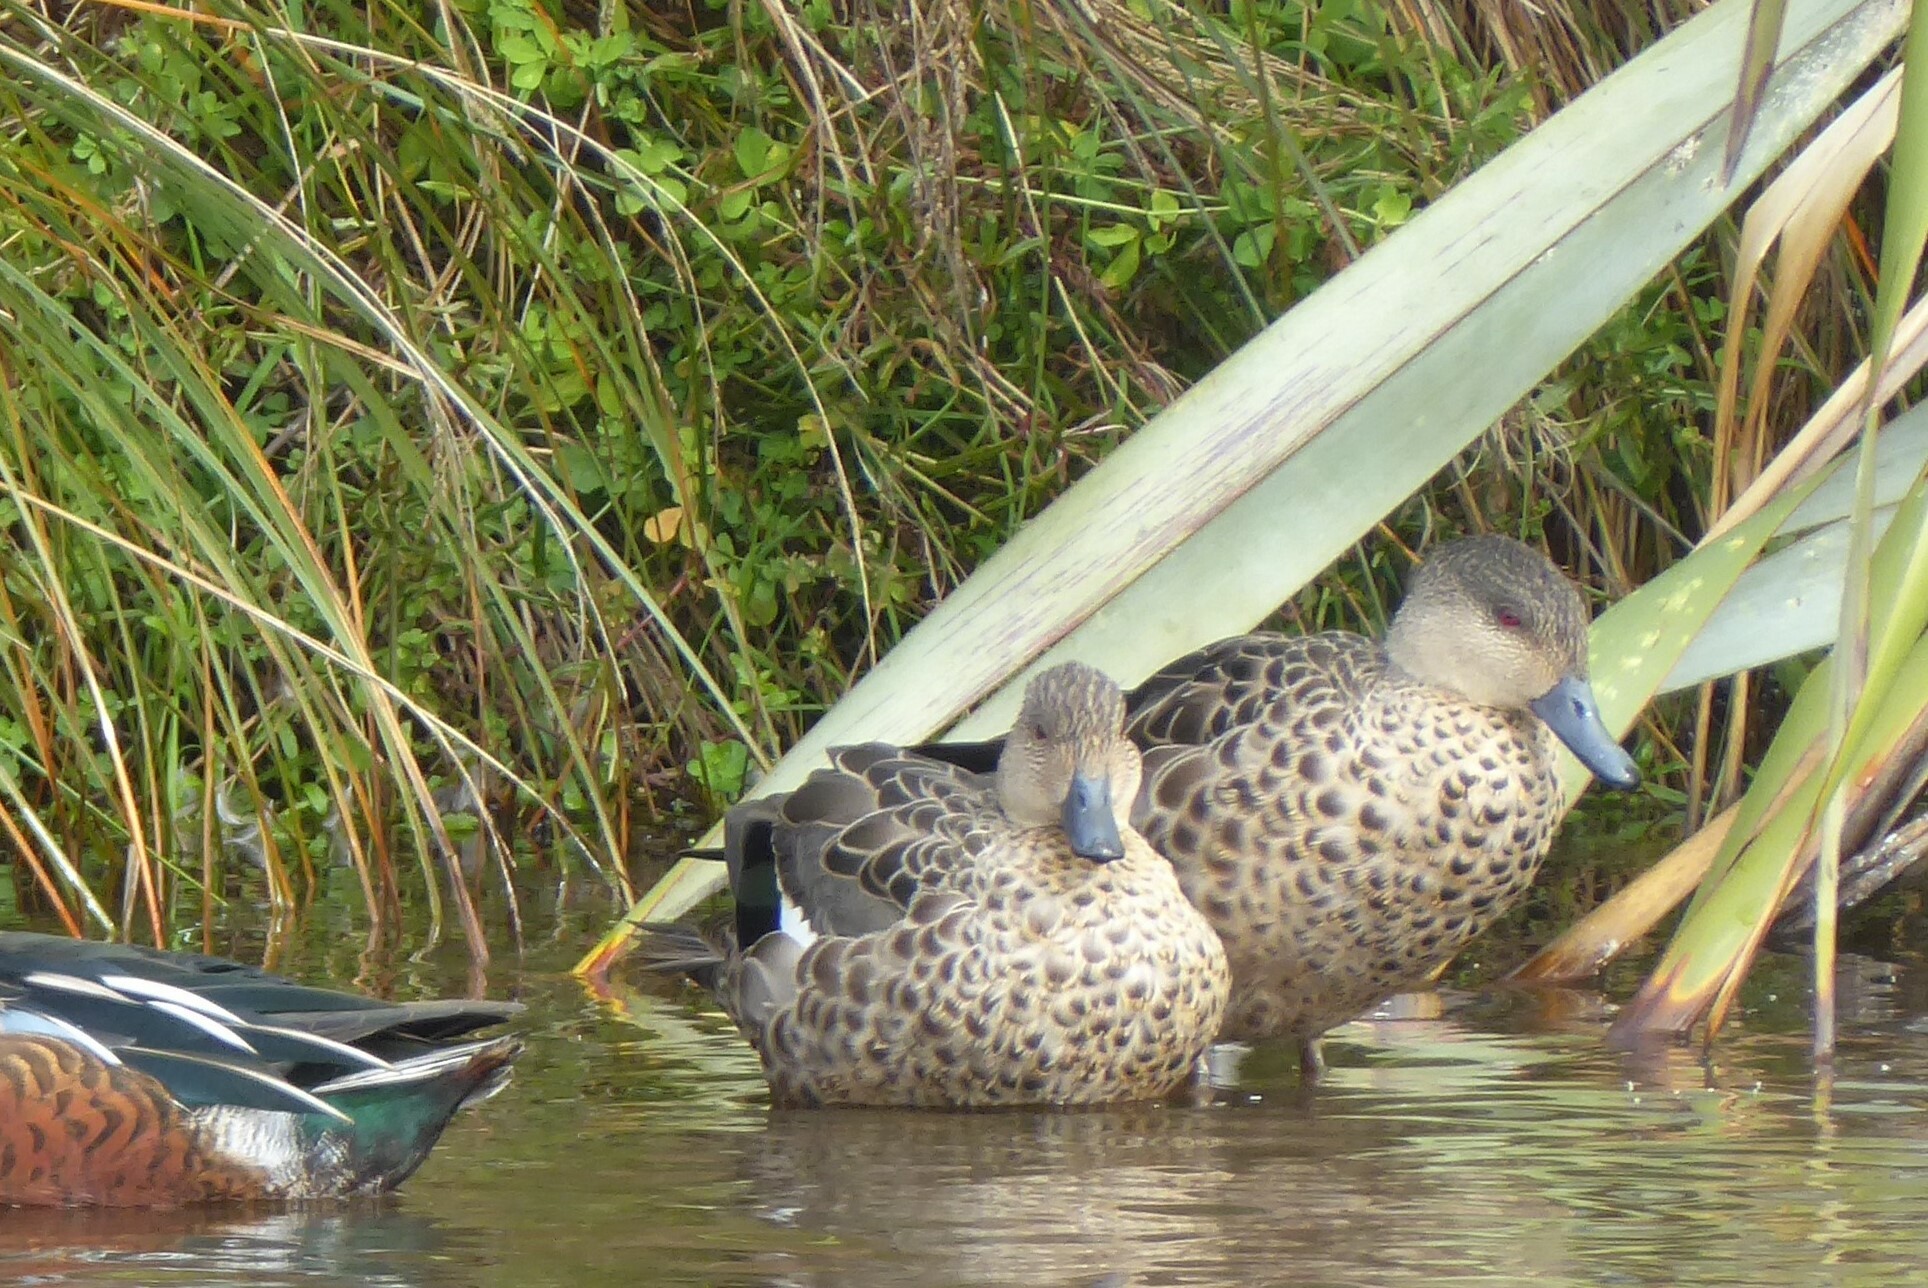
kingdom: Animalia
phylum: Chordata
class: Aves
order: Anseriformes
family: Anatidae
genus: Anas
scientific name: Anas gracilis
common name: Grey teal
